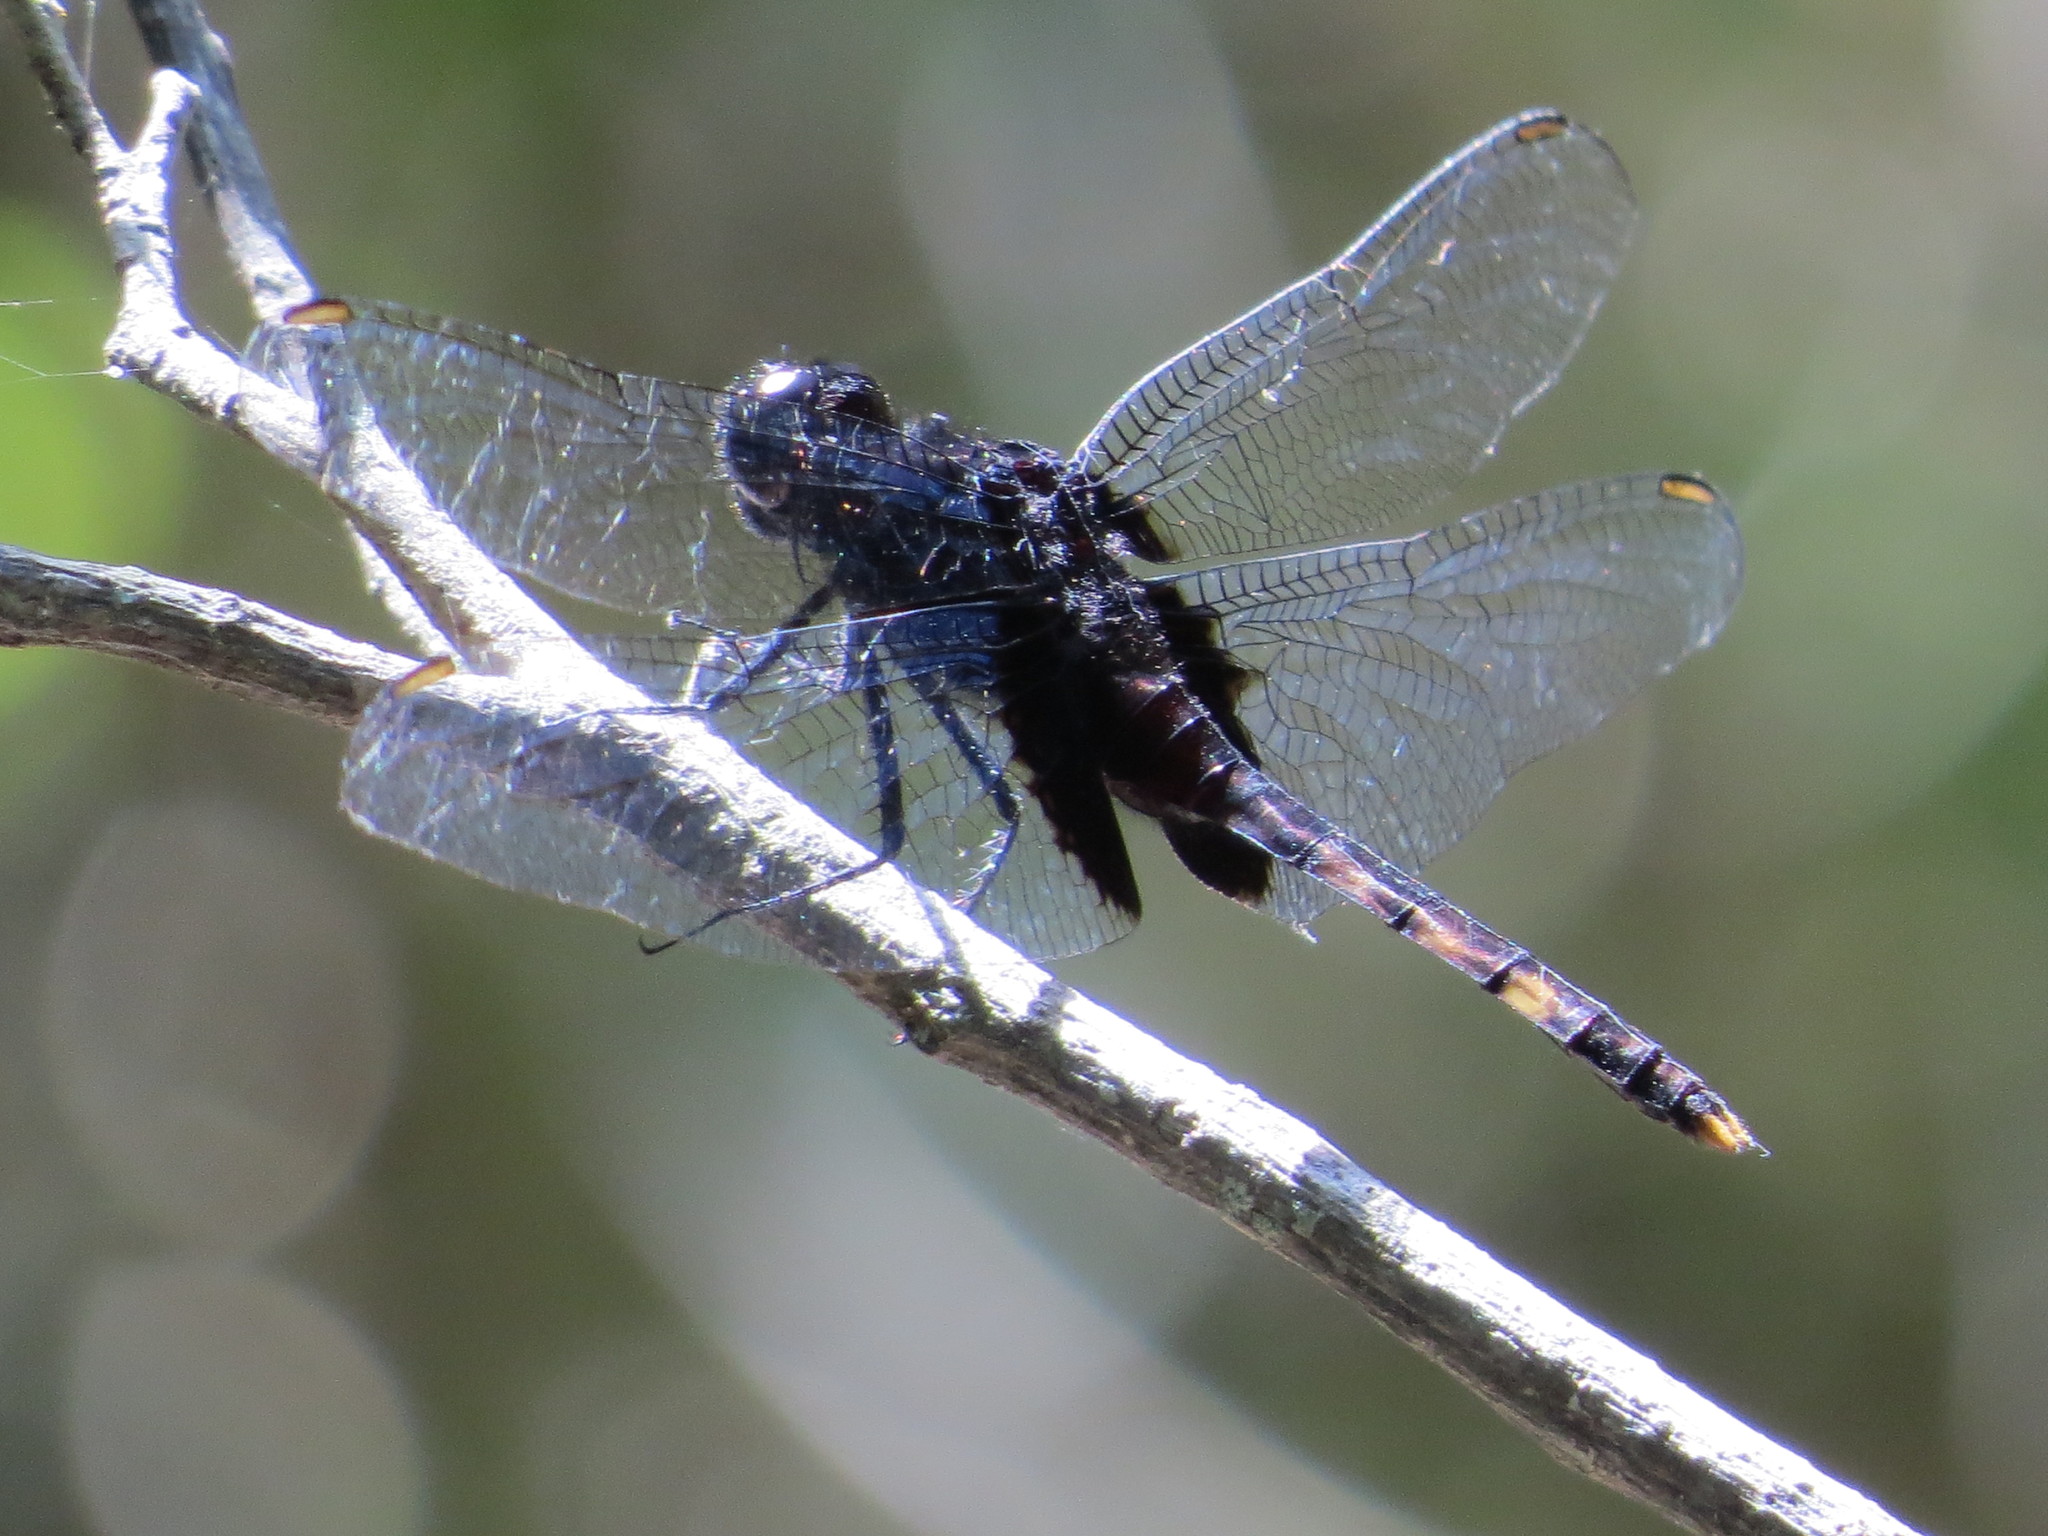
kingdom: Animalia
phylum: Arthropoda
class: Insecta
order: Odonata
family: Libellulidae
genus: Erythemis
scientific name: Erythemis attala
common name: Black pondhawk
